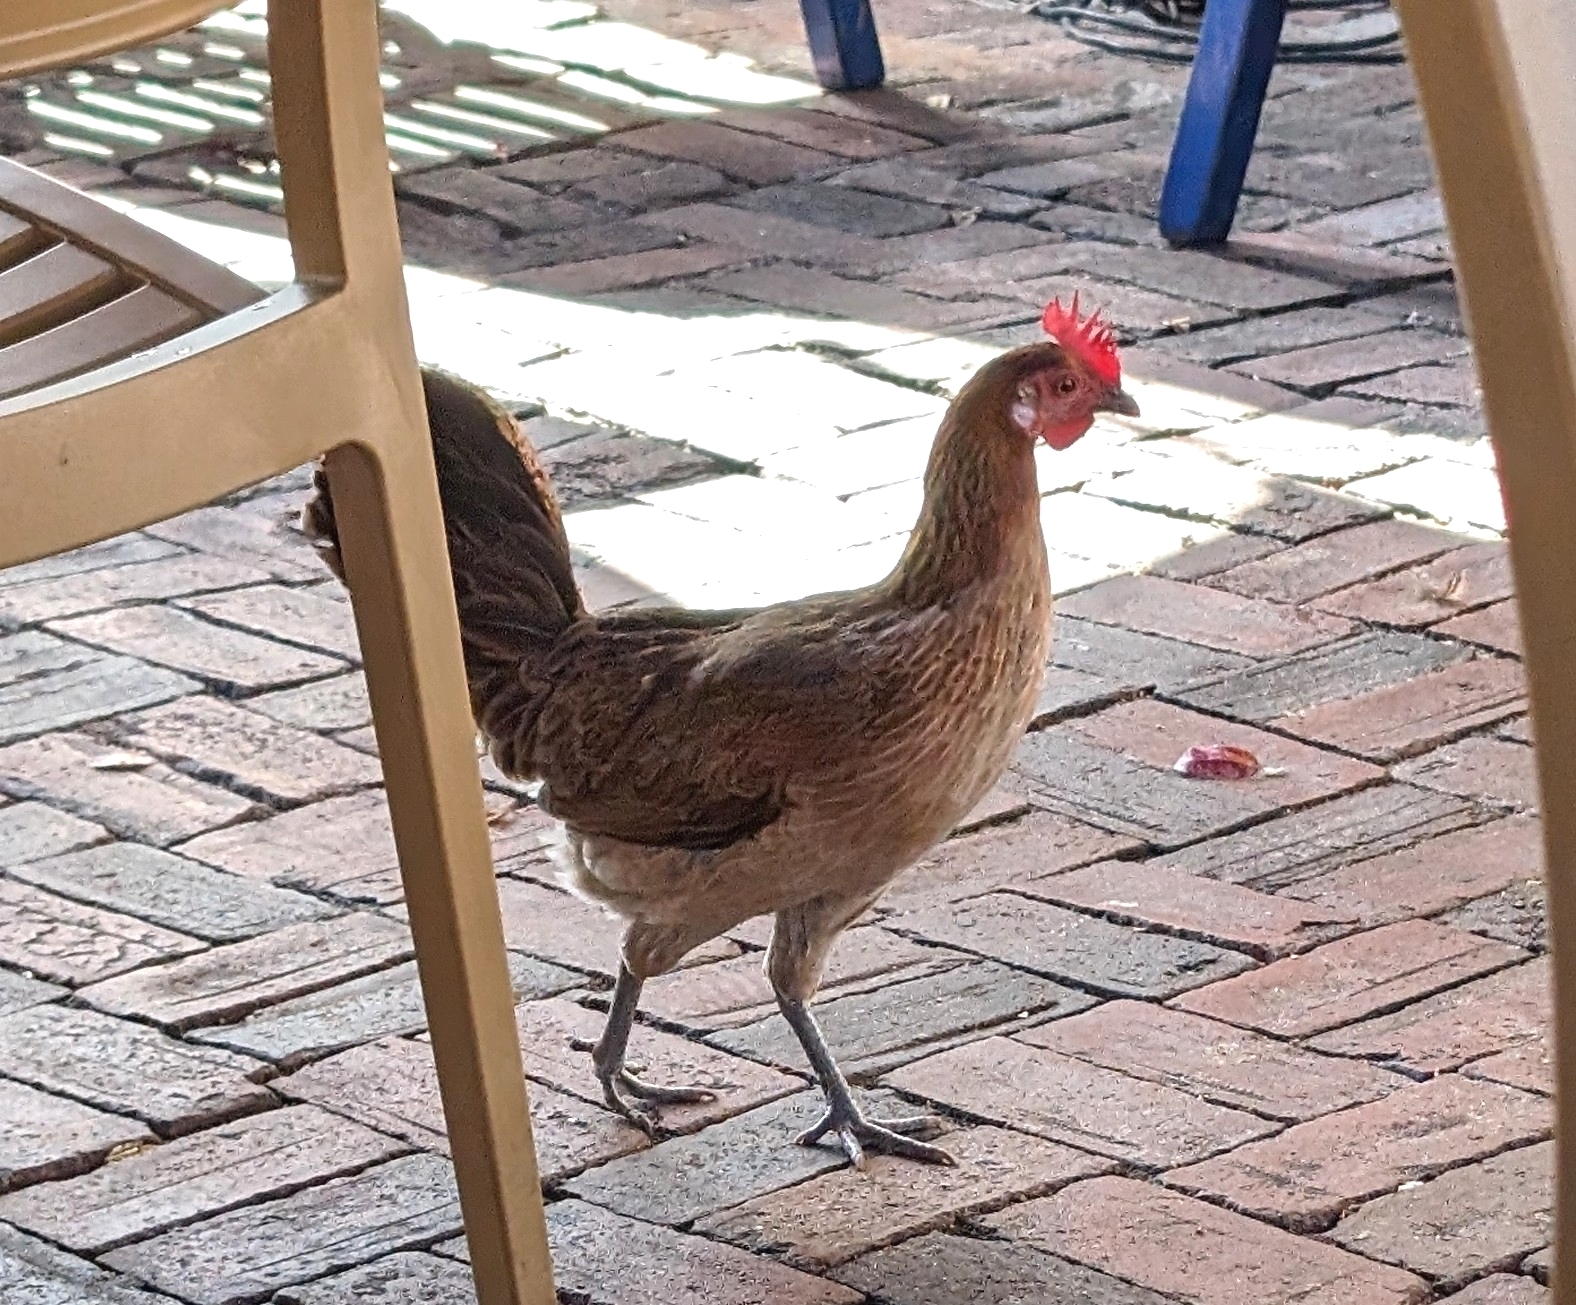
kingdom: Animalia
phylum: Chordata
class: Aves
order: Galliformes
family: Phasianidae
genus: Gallus
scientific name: Gallus gallus
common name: Red junglefowl
